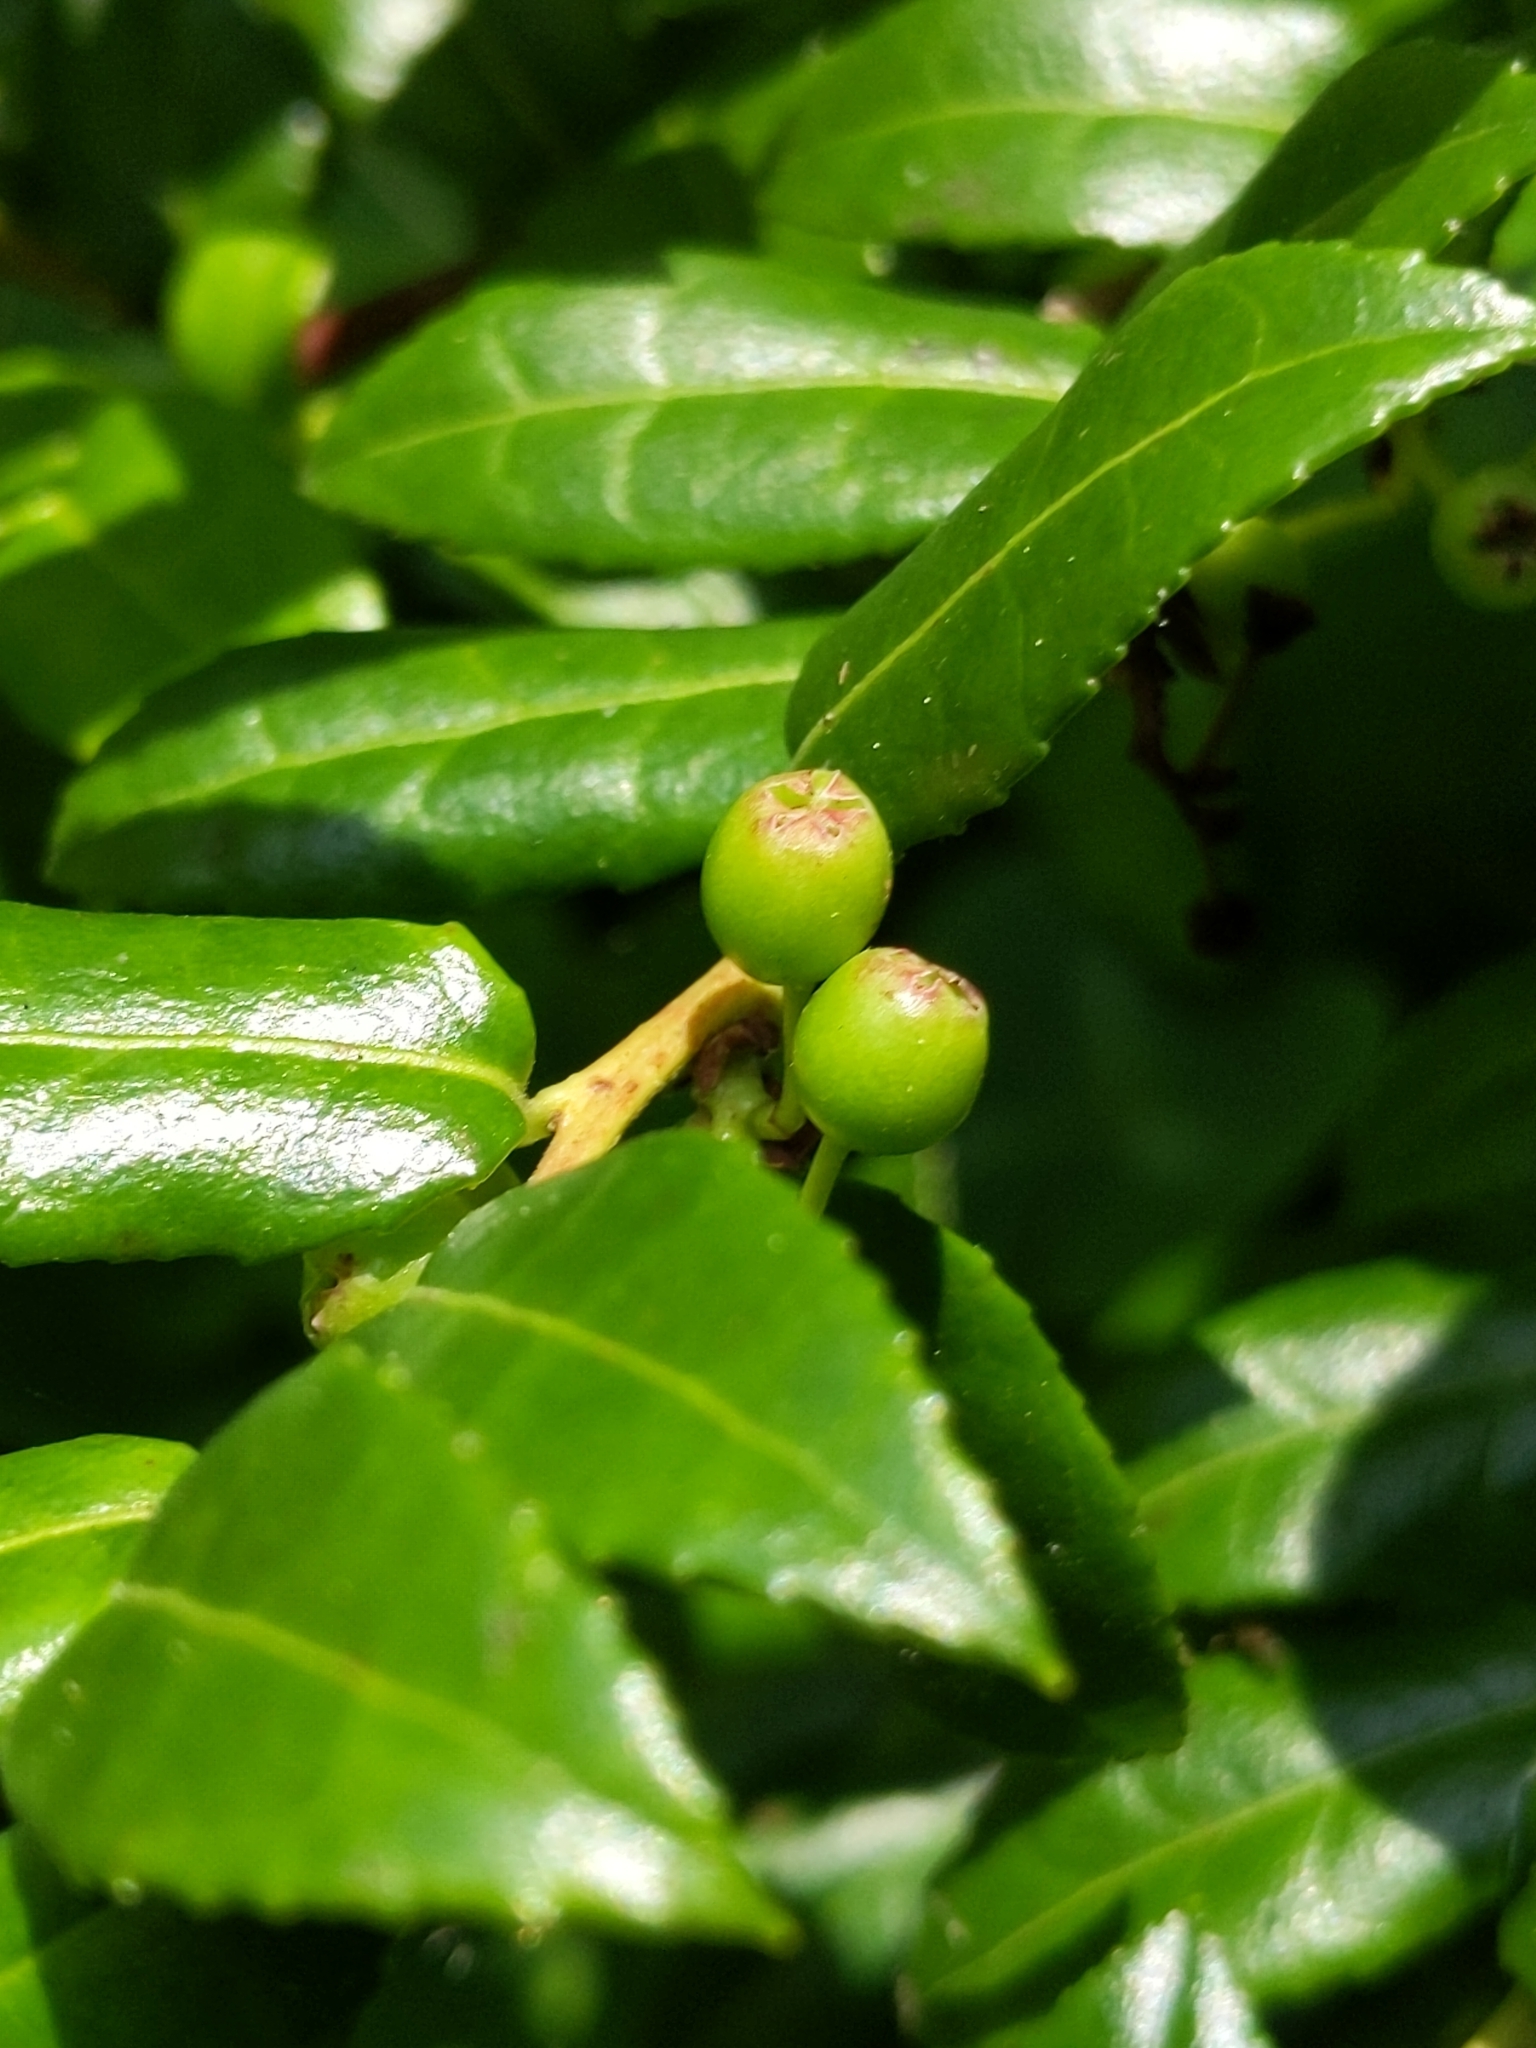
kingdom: Plantae
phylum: Tracheophyta
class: Magnoliopsida
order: Ericales
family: Ericaceae
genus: Vaccinium
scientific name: Vaccinium ovatum
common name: California-huckleberry
